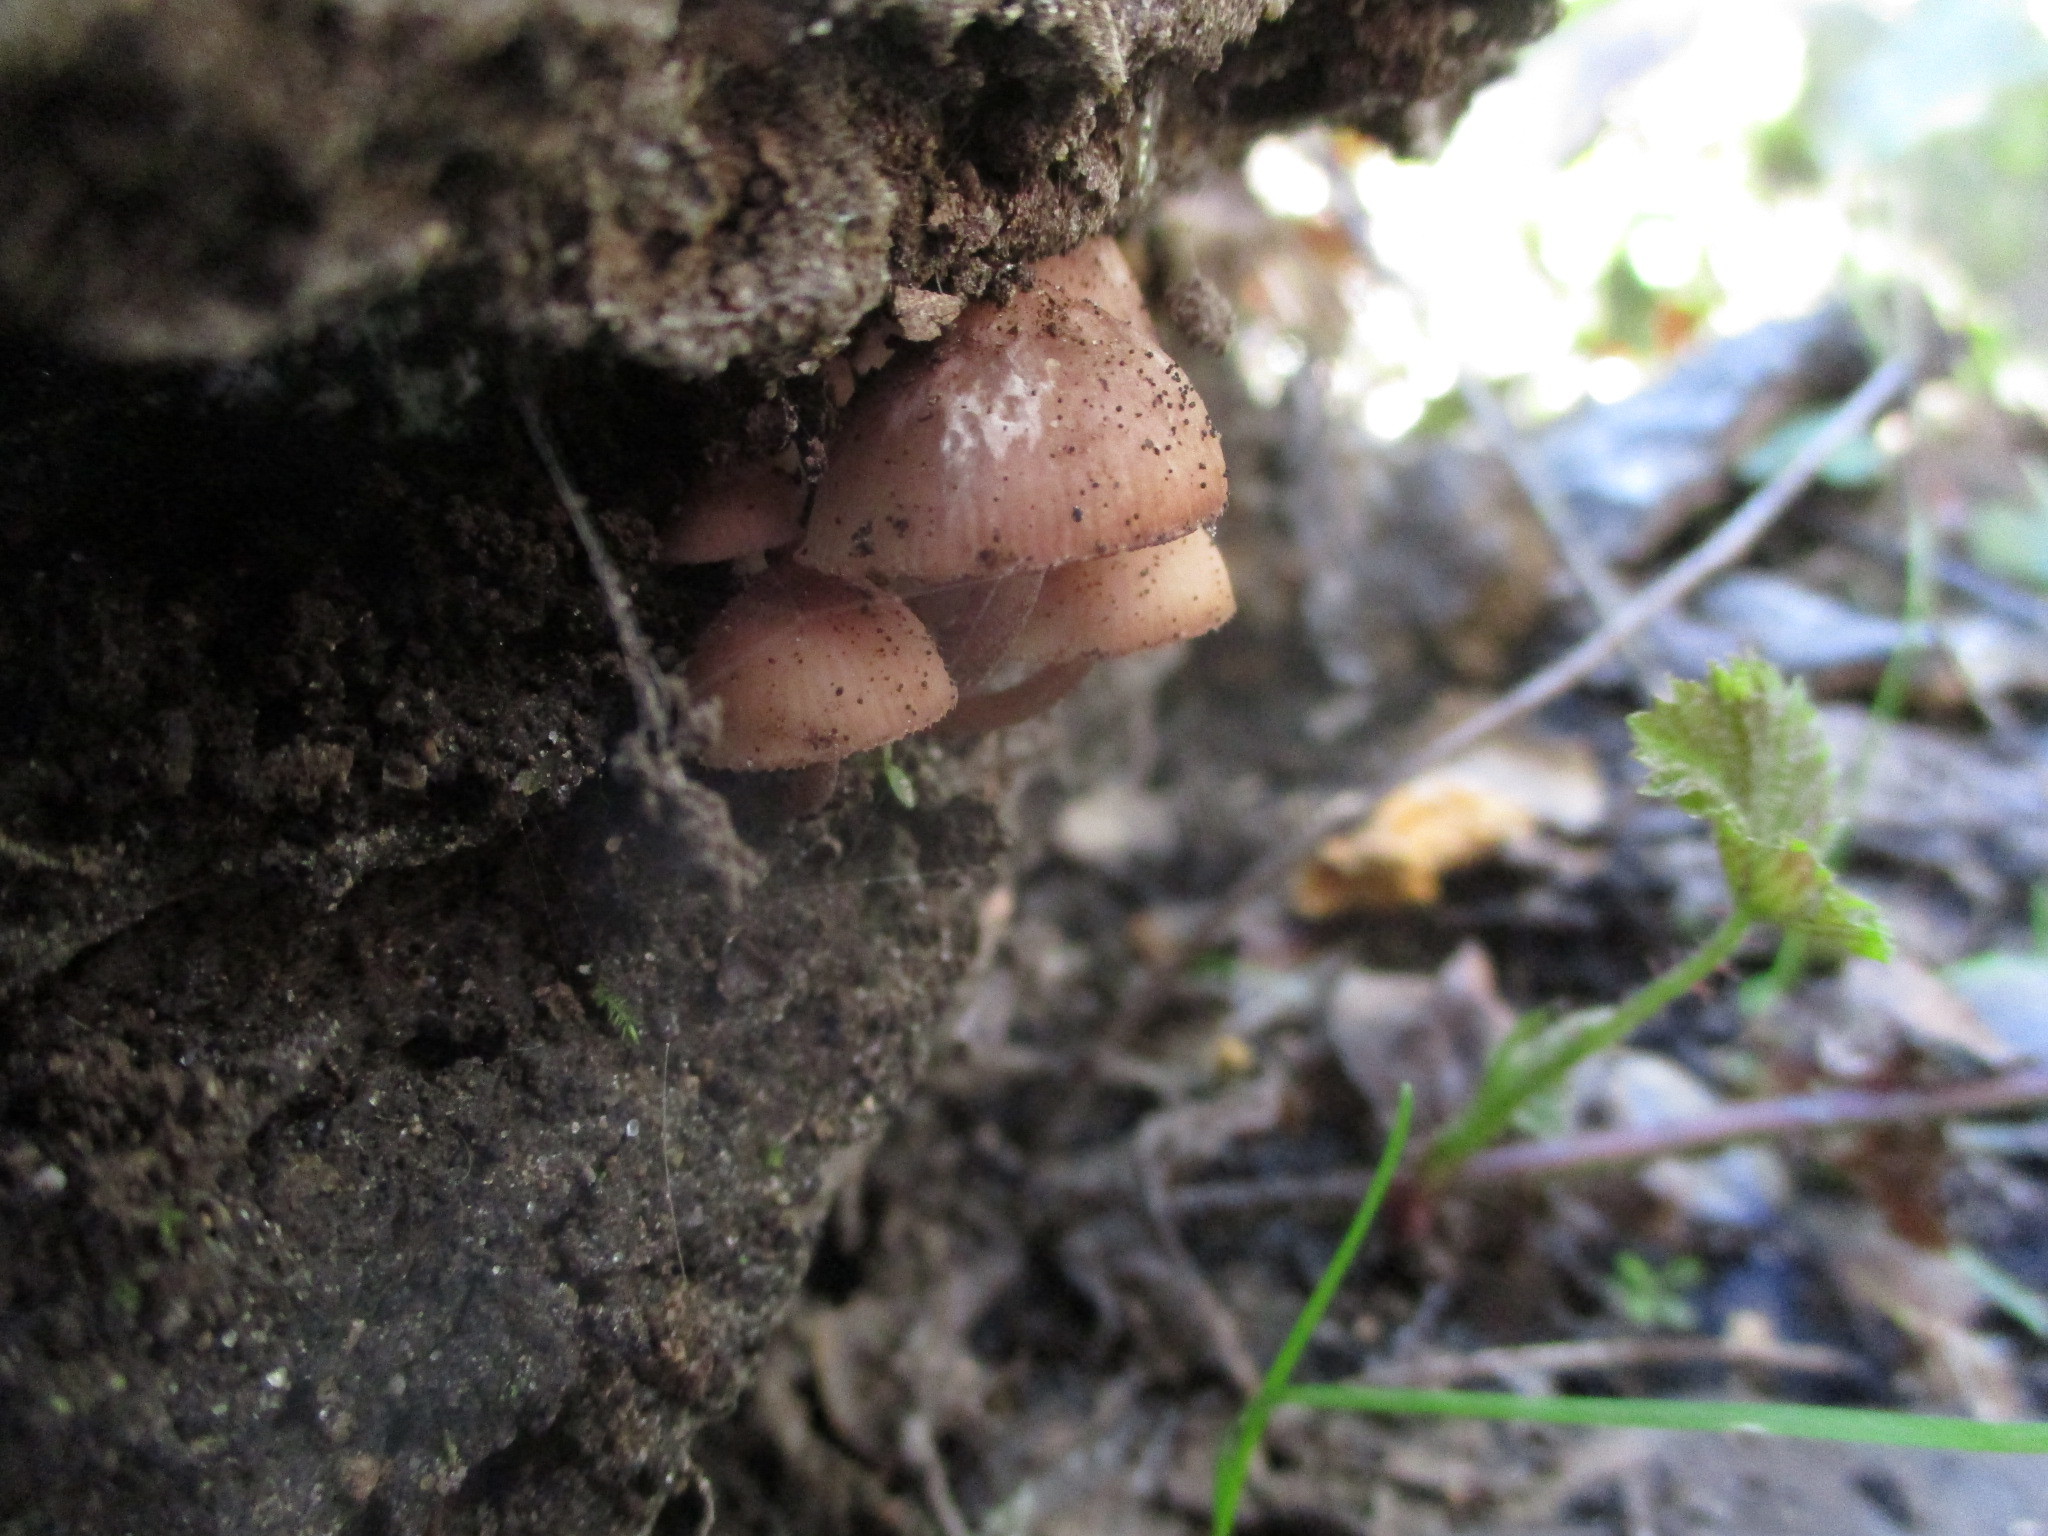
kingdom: Fungi
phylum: Basidiomycota
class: Agaricomycetes
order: Agaricales
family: Mycenaceae
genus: Mycena
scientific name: Mycena haematopus
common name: Burgundydrop bonnet
